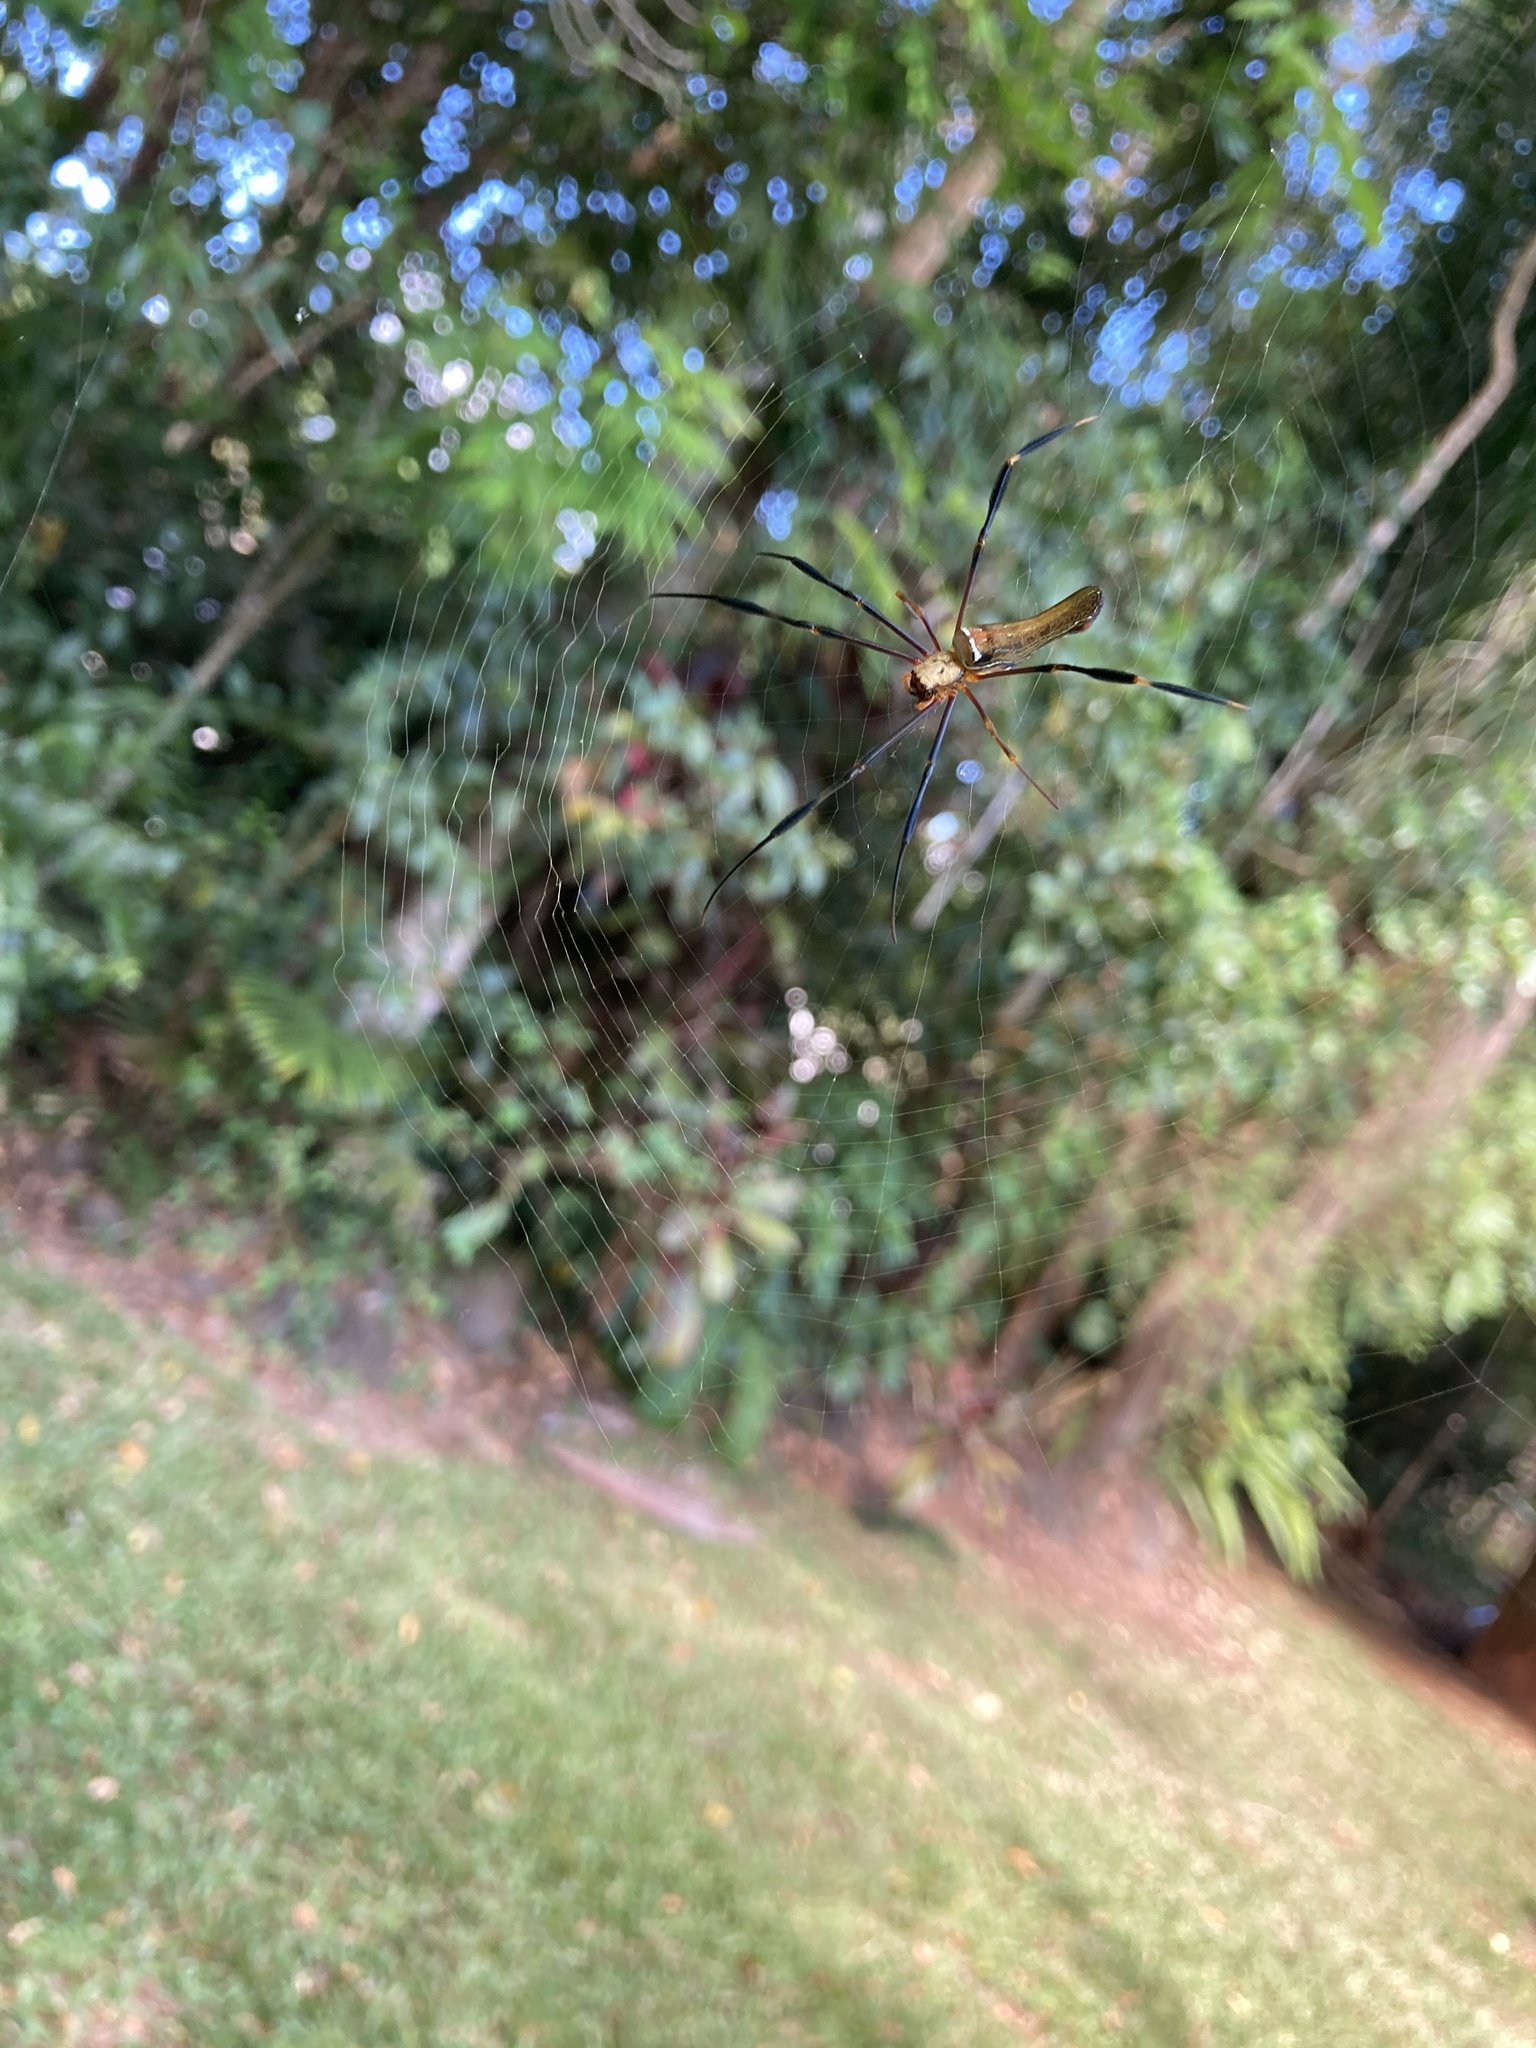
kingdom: Animalia
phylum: Arthropoda
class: Arachnida
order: Araneae
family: Araneidae
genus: Nephila
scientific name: Nephila pilipes
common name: Giant golden orb weaver
